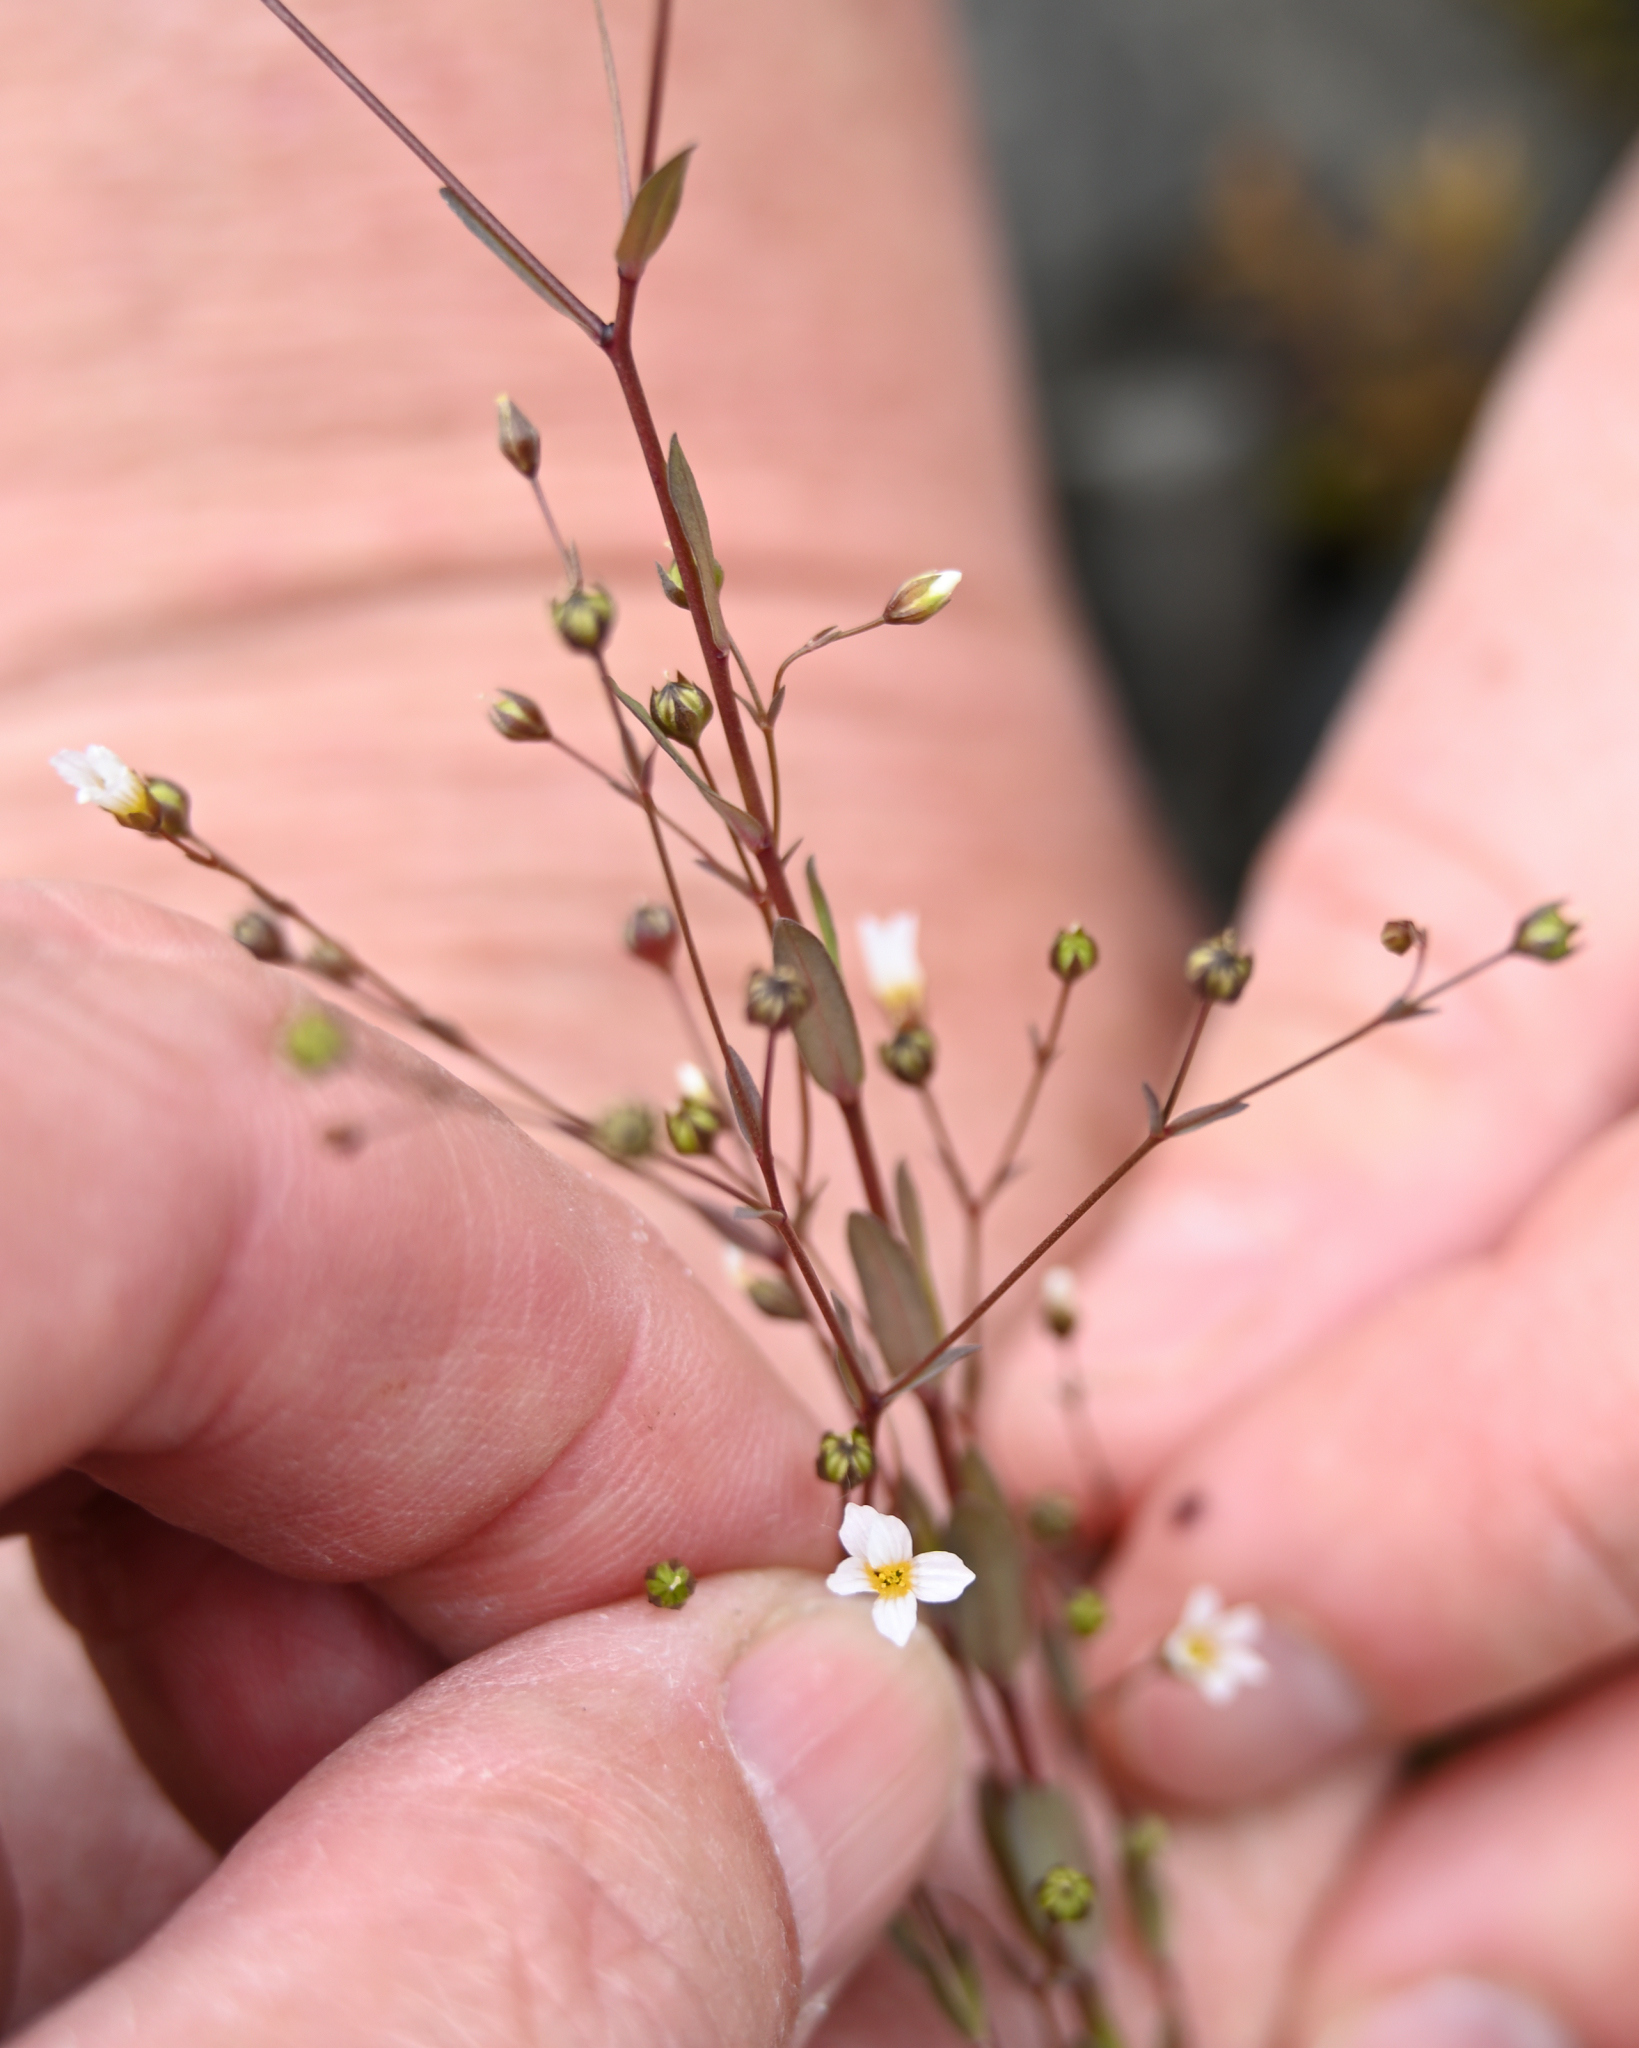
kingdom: Plantae
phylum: Tracheophyta
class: Magnoliopsida
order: Malpighiales
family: Linaceae
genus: Linum
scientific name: Linum catharticum
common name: Fairy flax
